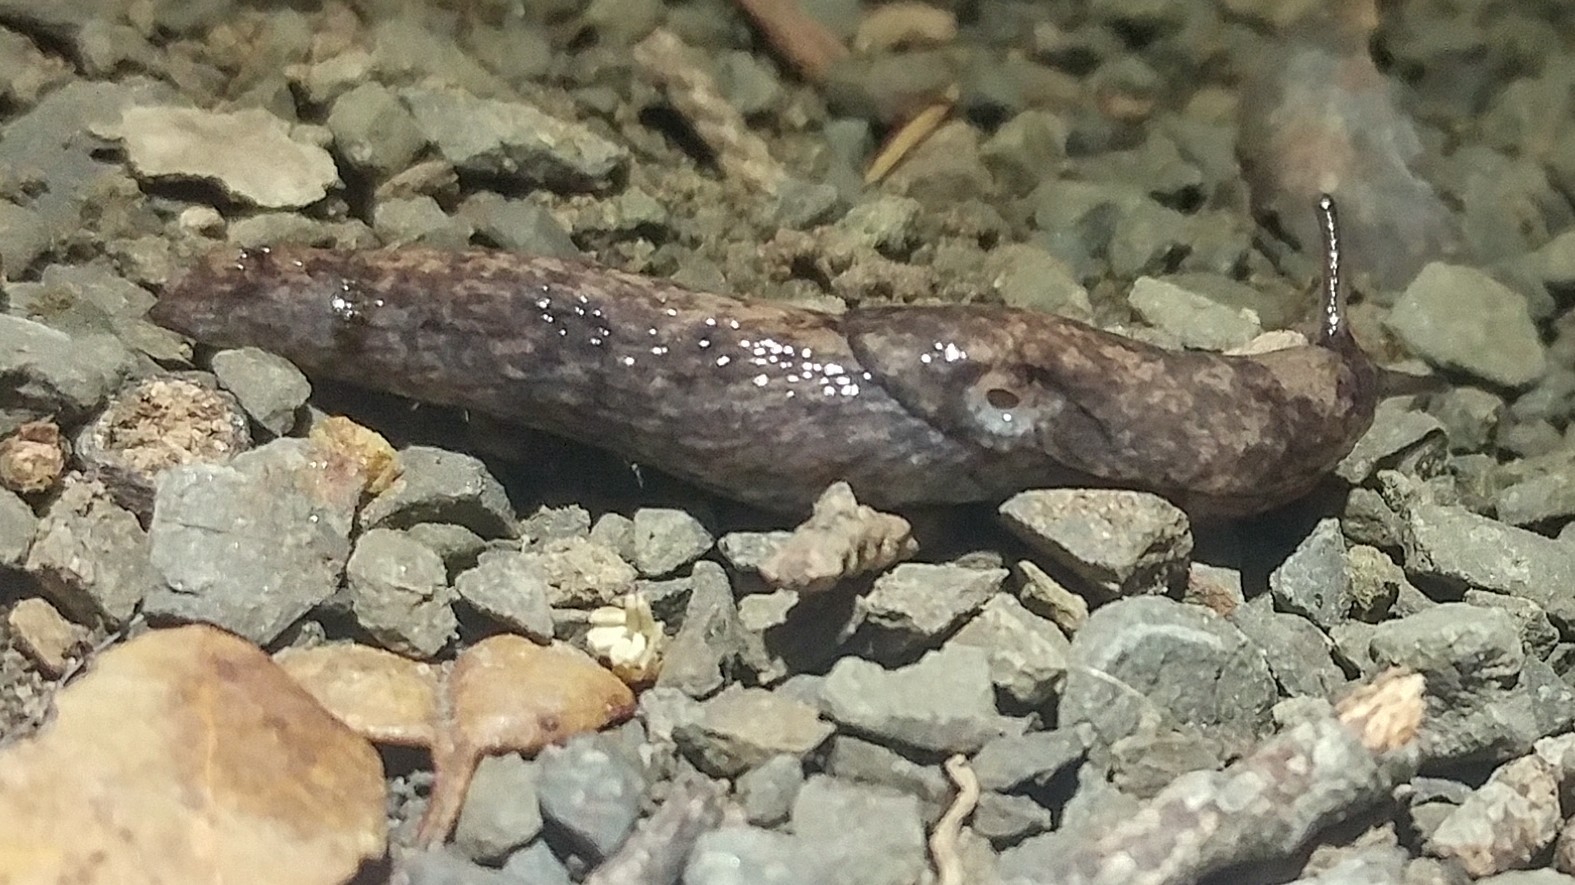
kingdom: Animalia
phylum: Mollusca
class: Gastropoda
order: Stylommatophora
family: Agriolimacidae
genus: Deroceras
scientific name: Deroceras reticulatum
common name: Gray field slug
